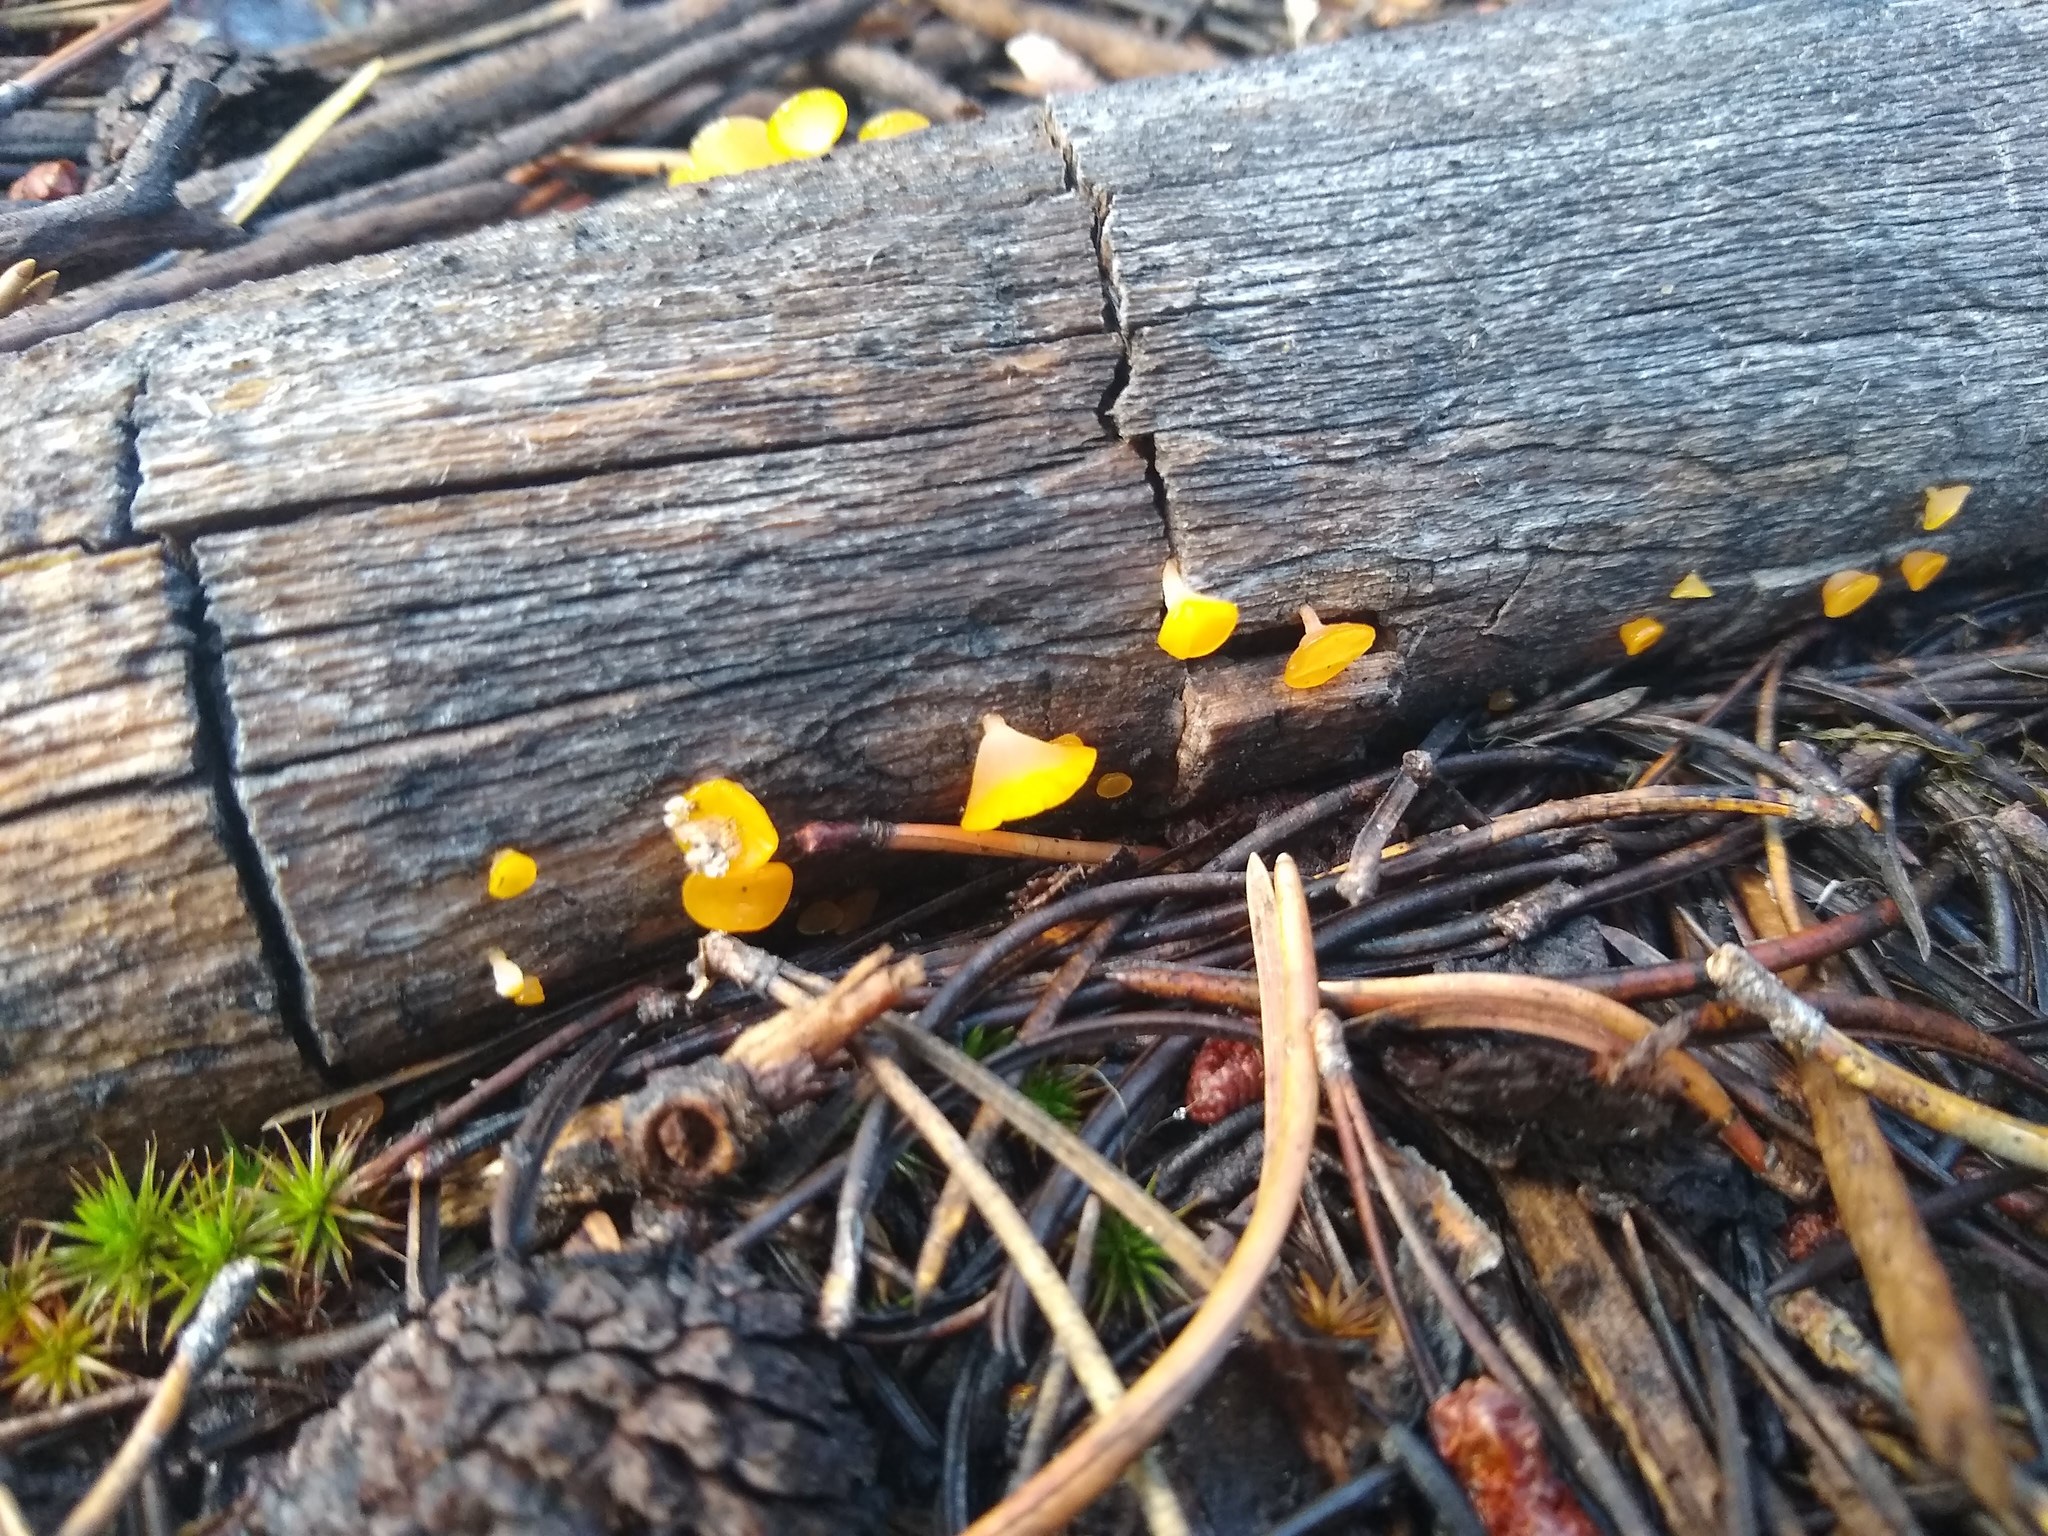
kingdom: Fungi
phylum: Basidiomycota
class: Dacrymycetes
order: Dacrymycetales
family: Dacrymycetaceae
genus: Guepiniopsis
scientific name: Guepiniopsis alpina
